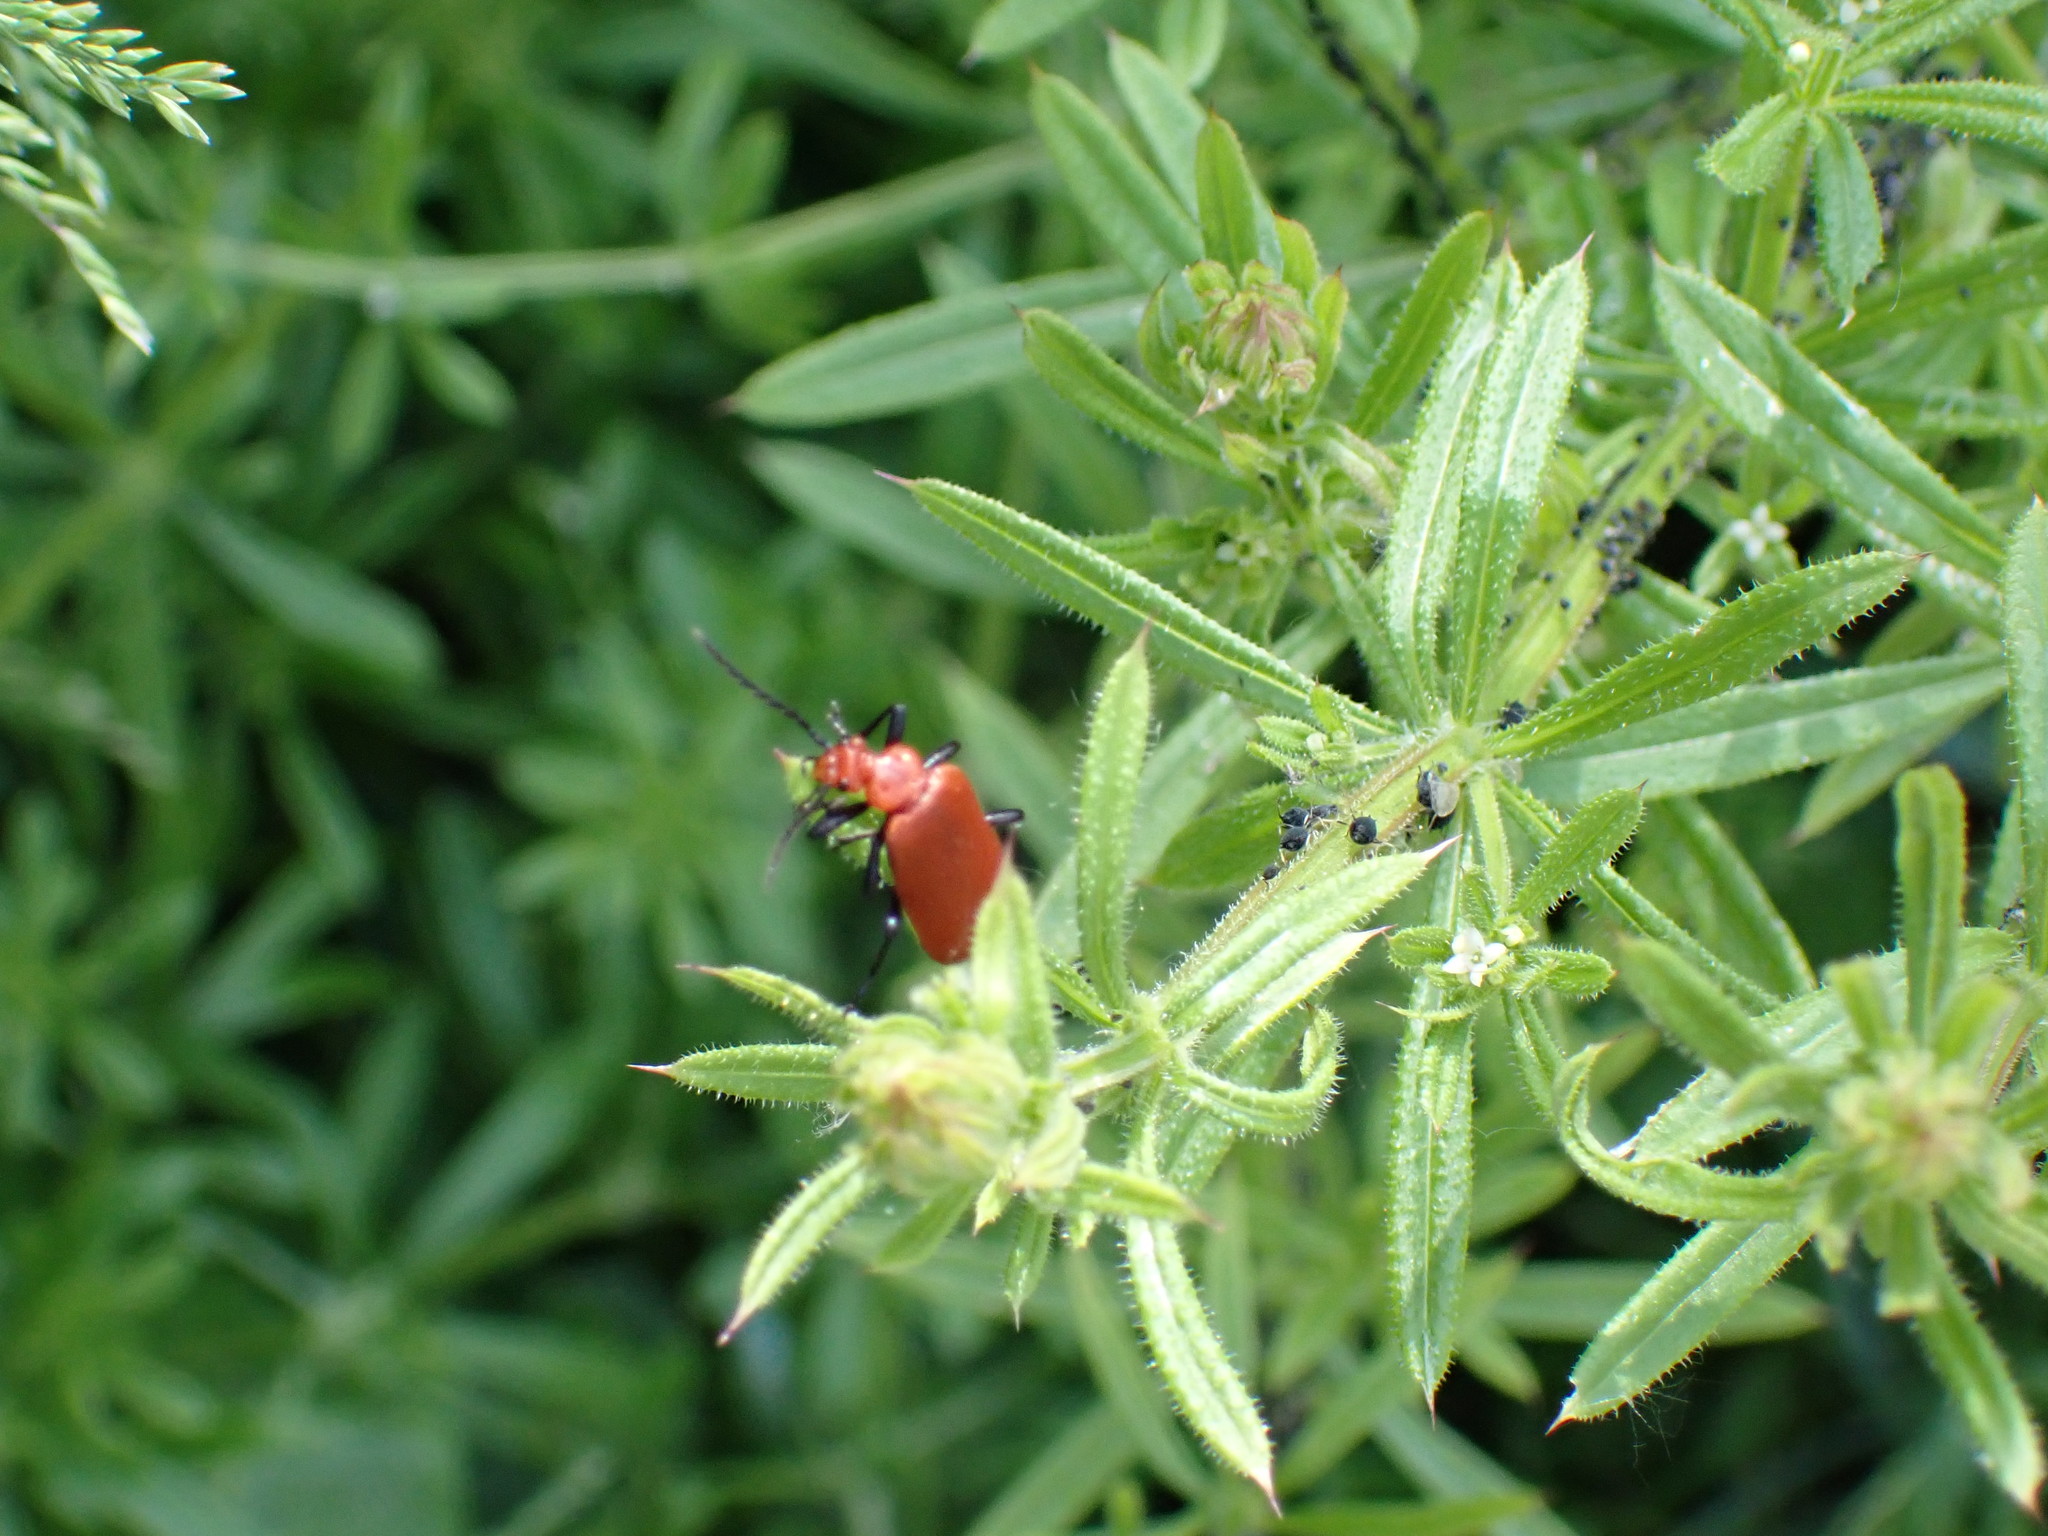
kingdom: Animalia
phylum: Arthropoda
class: Insecta
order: Coleoptera
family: Pyrochroidae
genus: Pyrochroa
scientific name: Pyrochroa serraticornis
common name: Red-headed cardinal beetle
